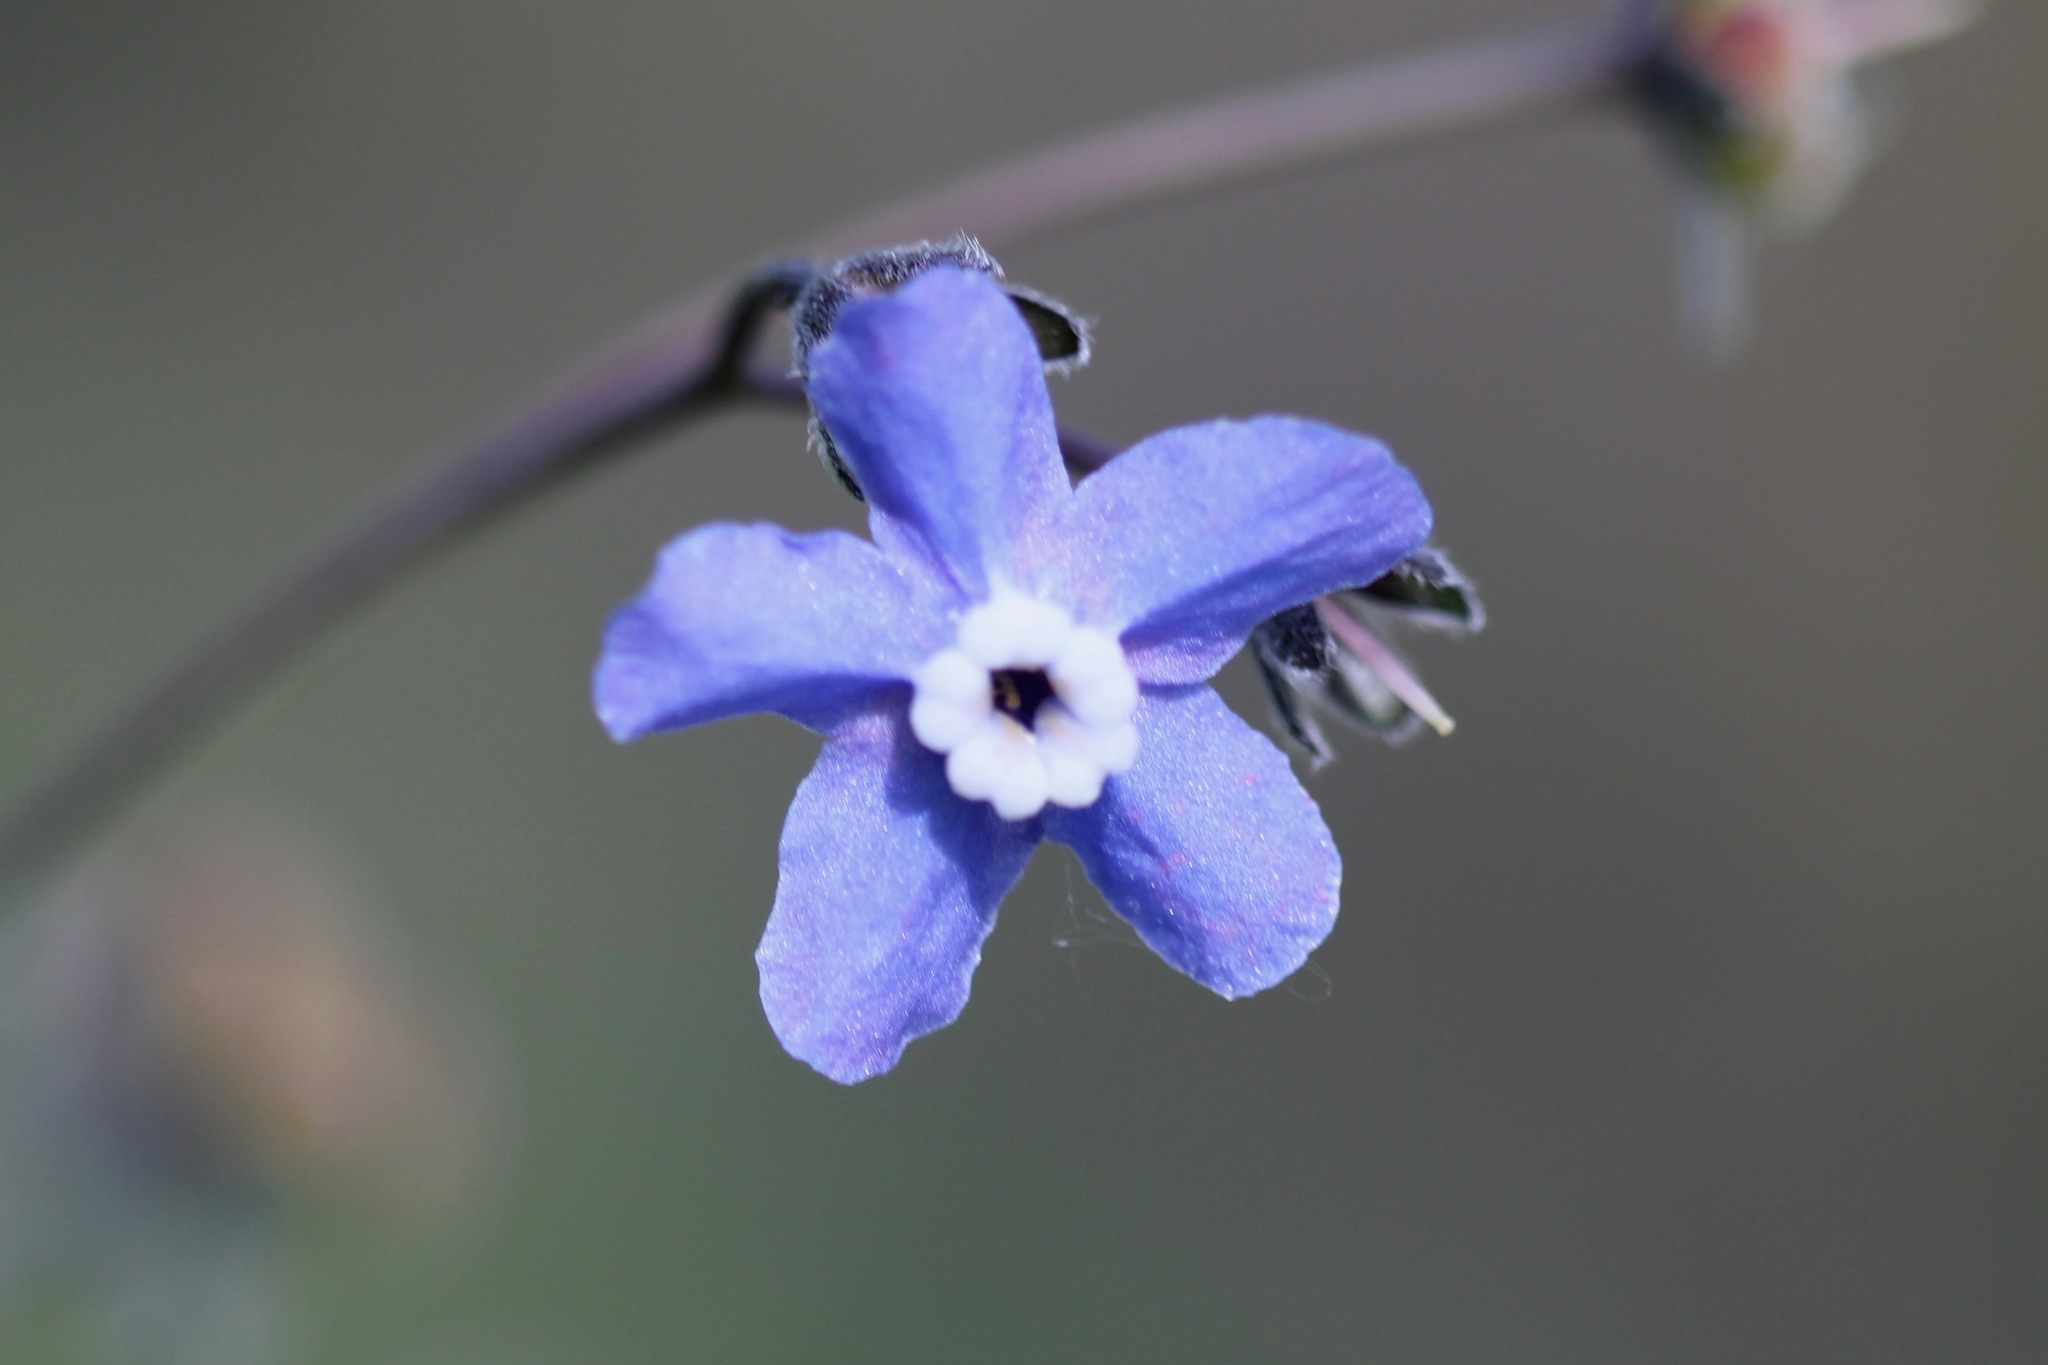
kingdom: Plantae
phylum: Tracheophyta
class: Magnoliopsida
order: Boraginales
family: Boraginaceae
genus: Adelinia
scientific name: Adelinia grande
